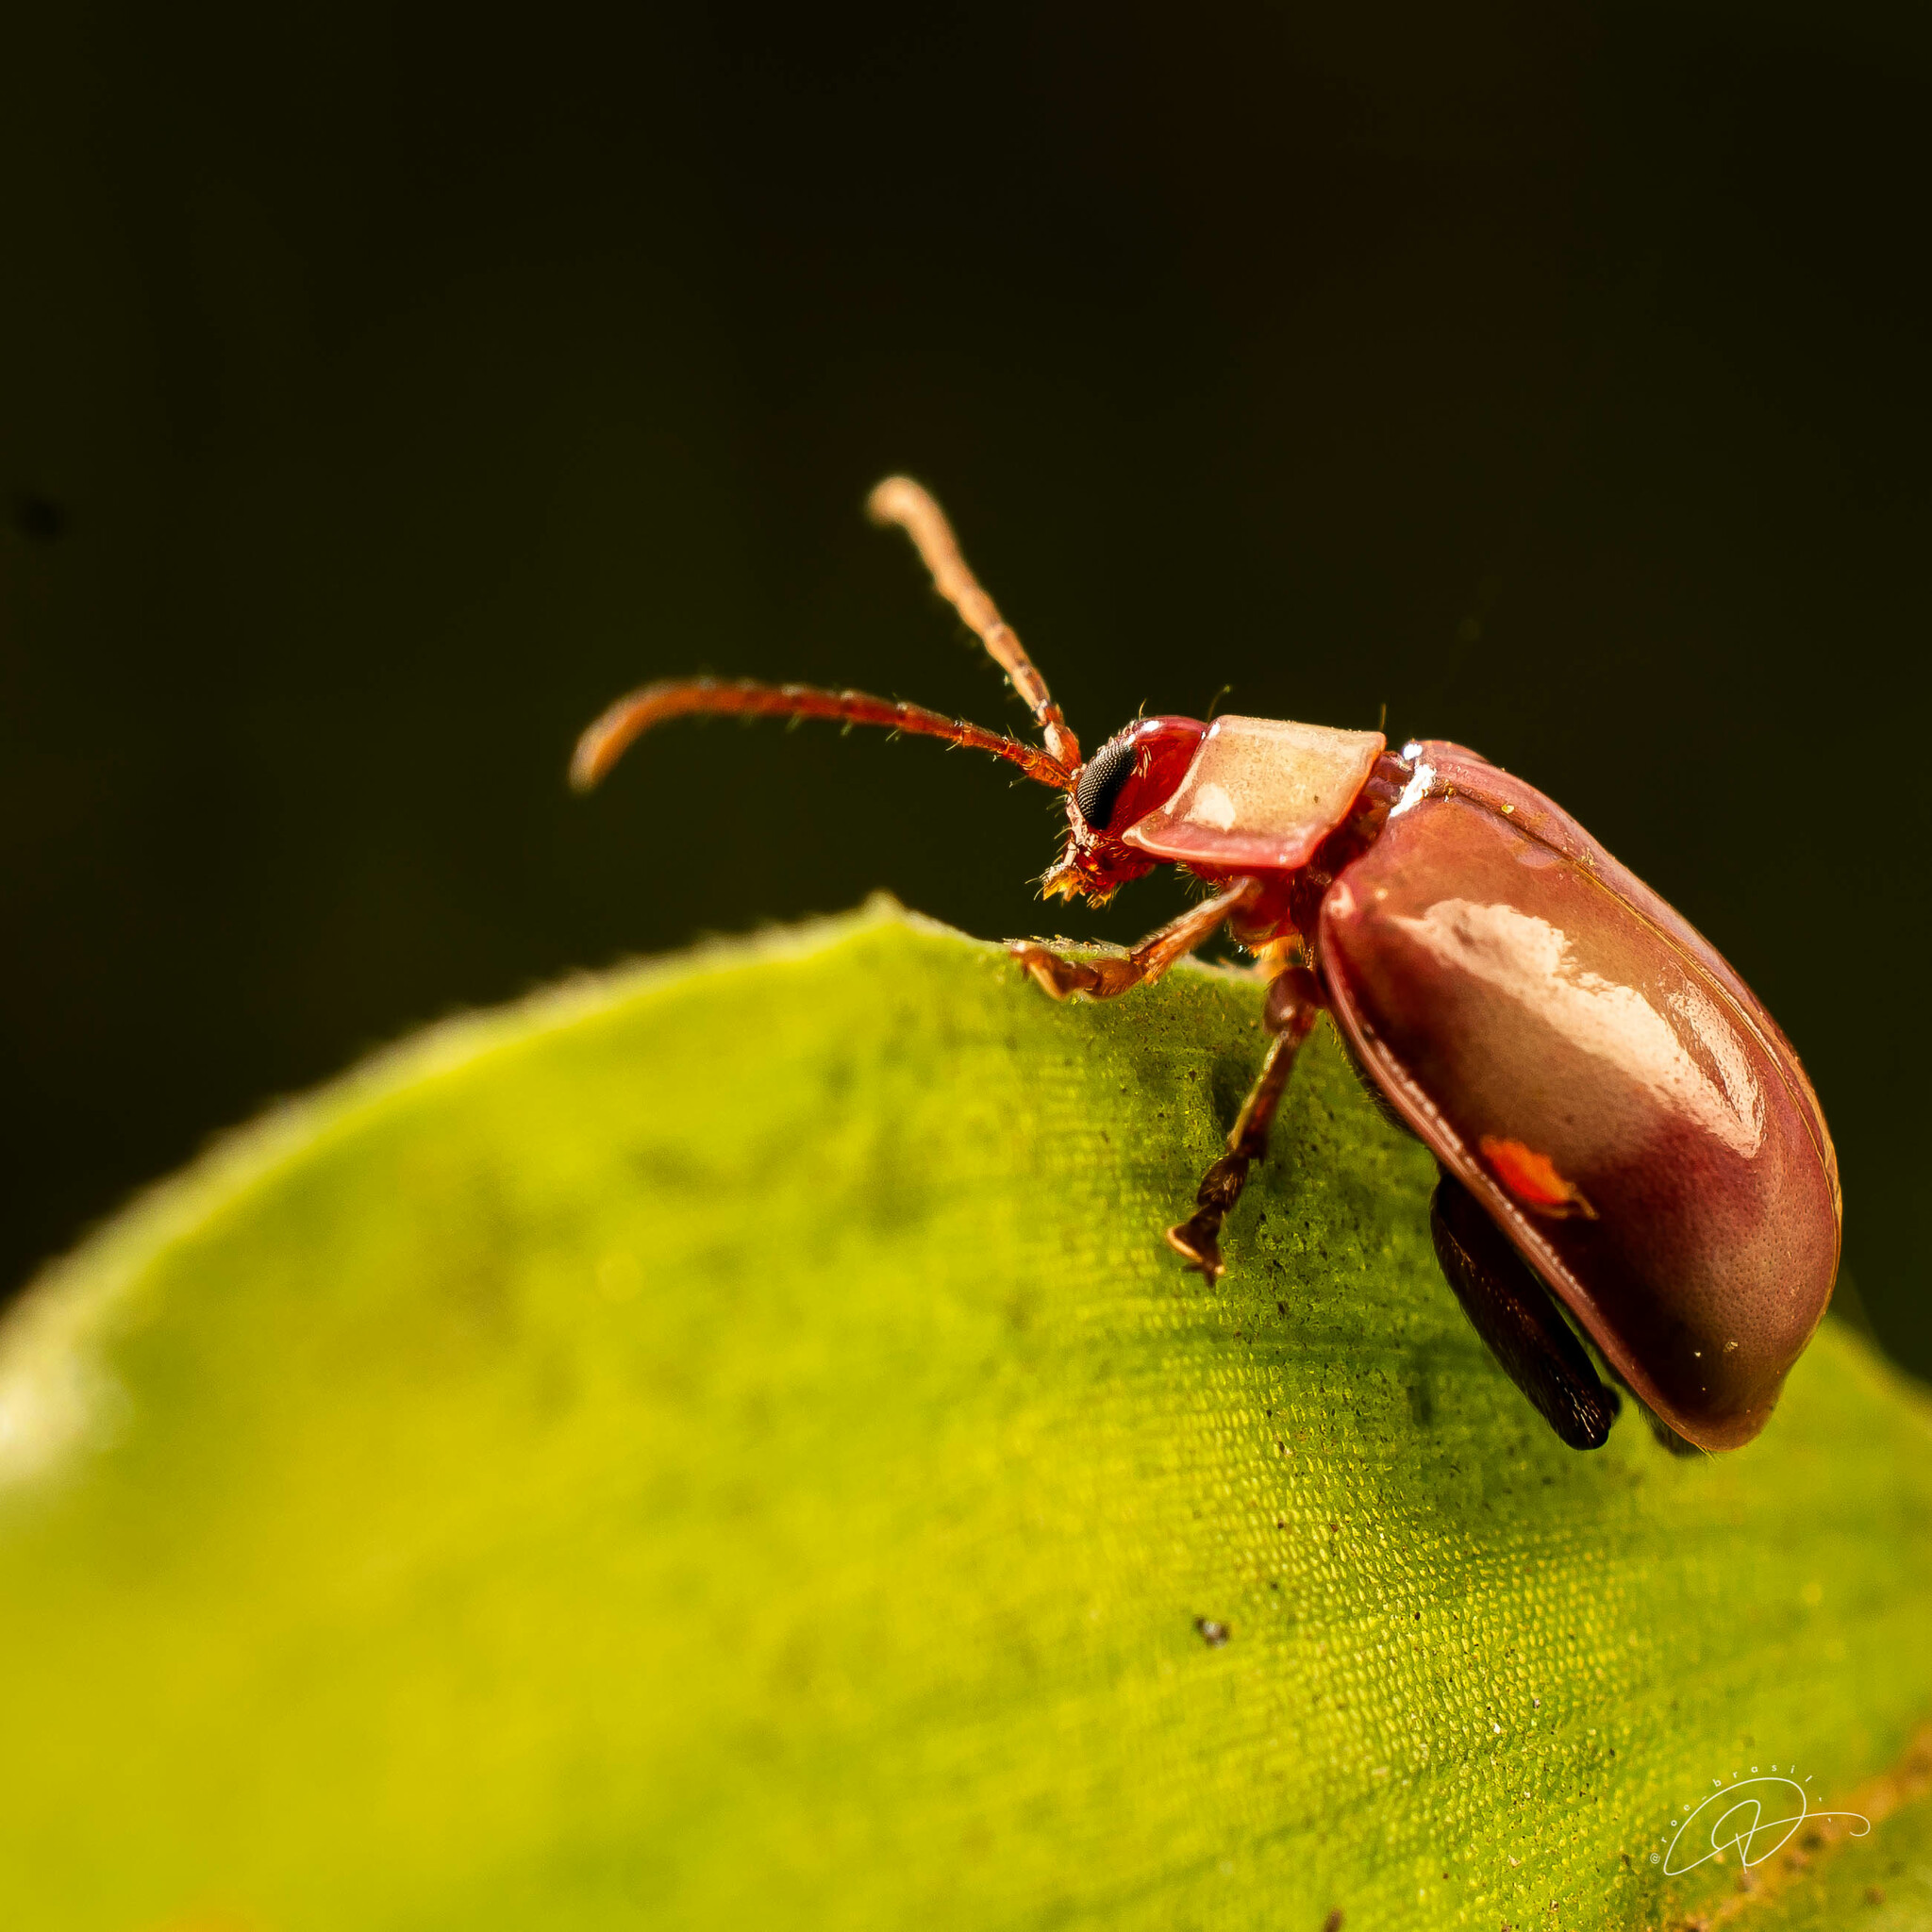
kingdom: Animalia
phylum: Arthropoda
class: Insecta
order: Coleoptera
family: Chrysomelidae
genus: Asphaera
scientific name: Asphaera
